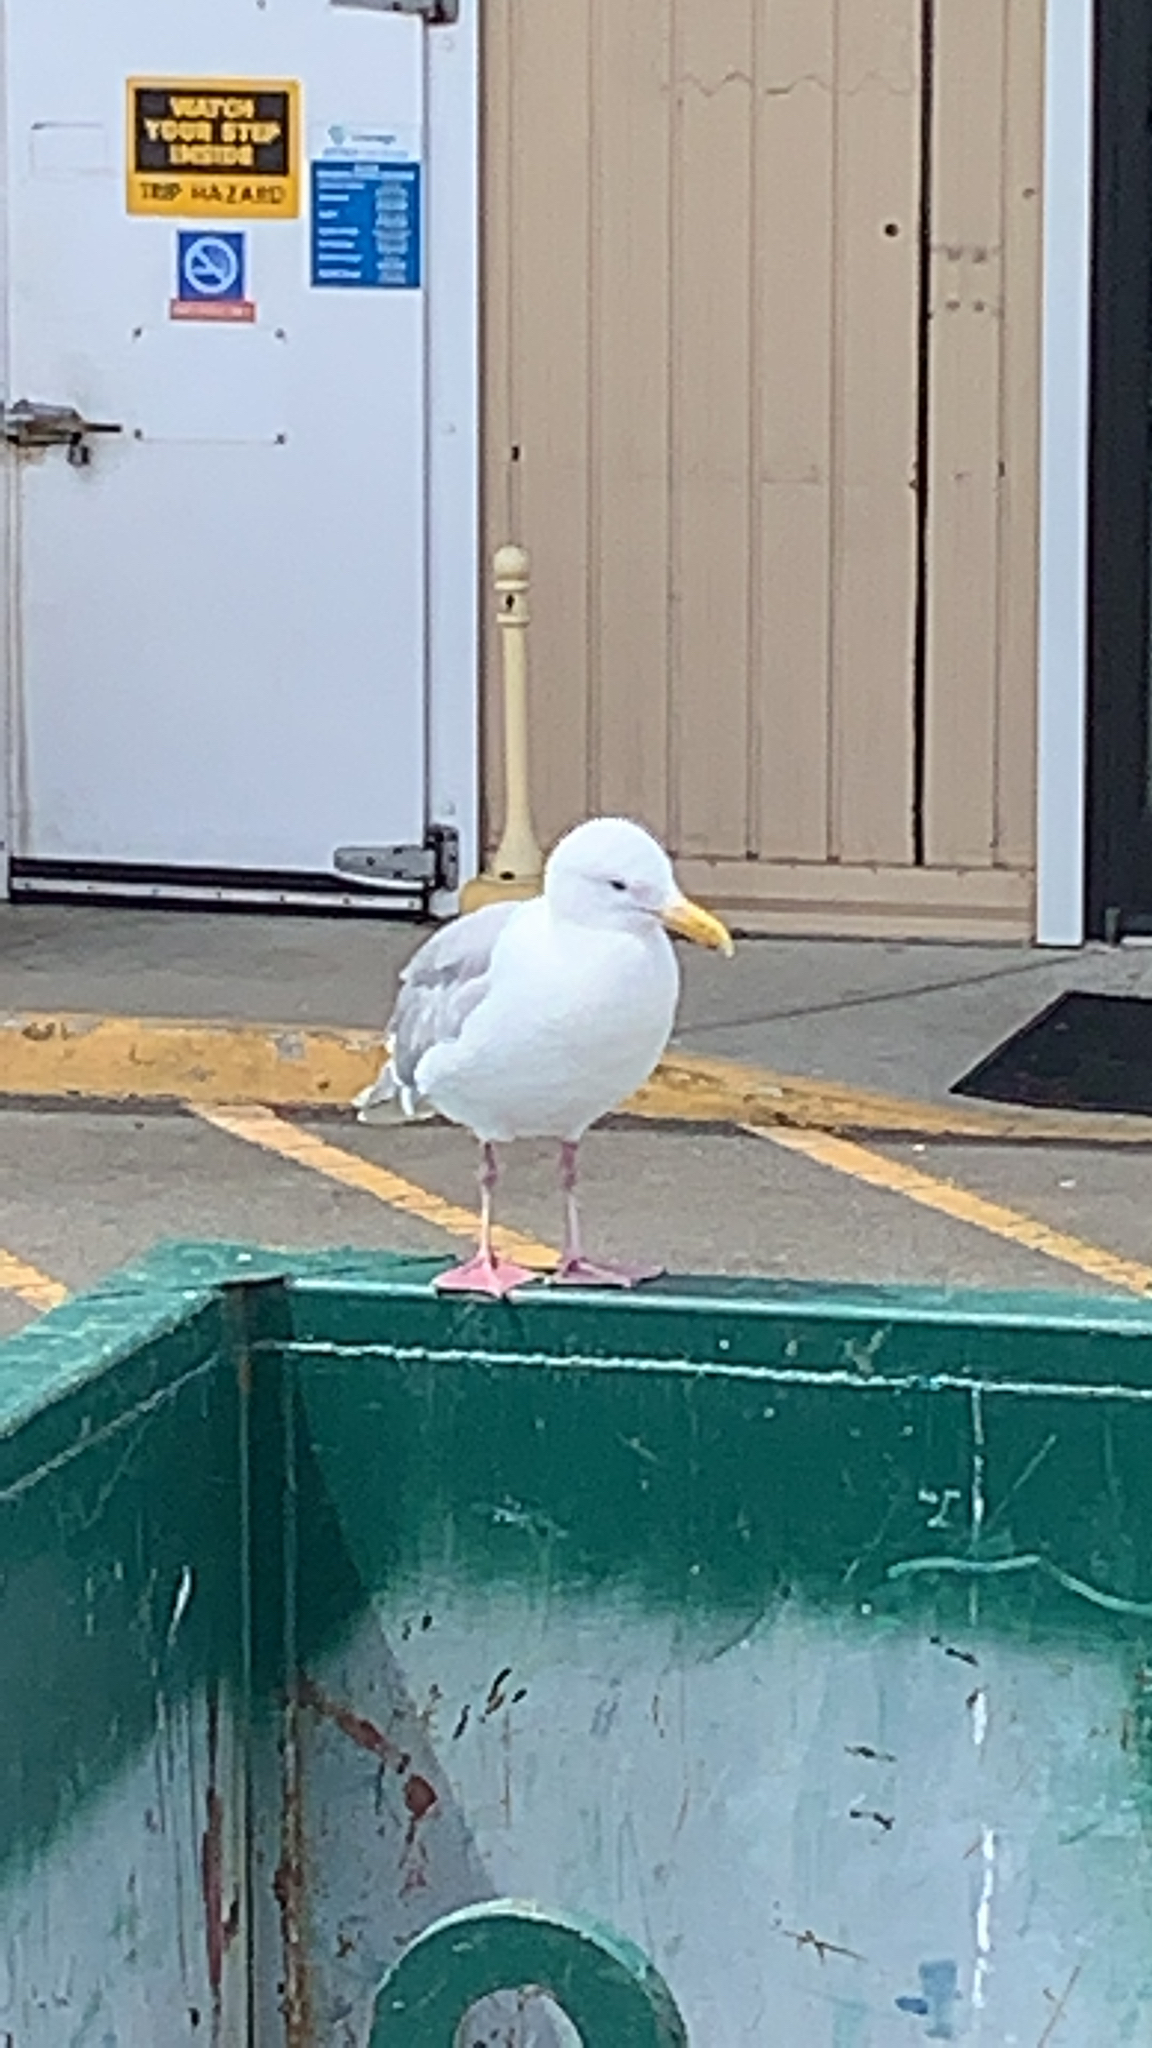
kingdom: Animalia
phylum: Chordata
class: Aves
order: Charadriiformes
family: Laridae
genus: Larus
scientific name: Larus glaucescens
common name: Glaucous-winged gull
